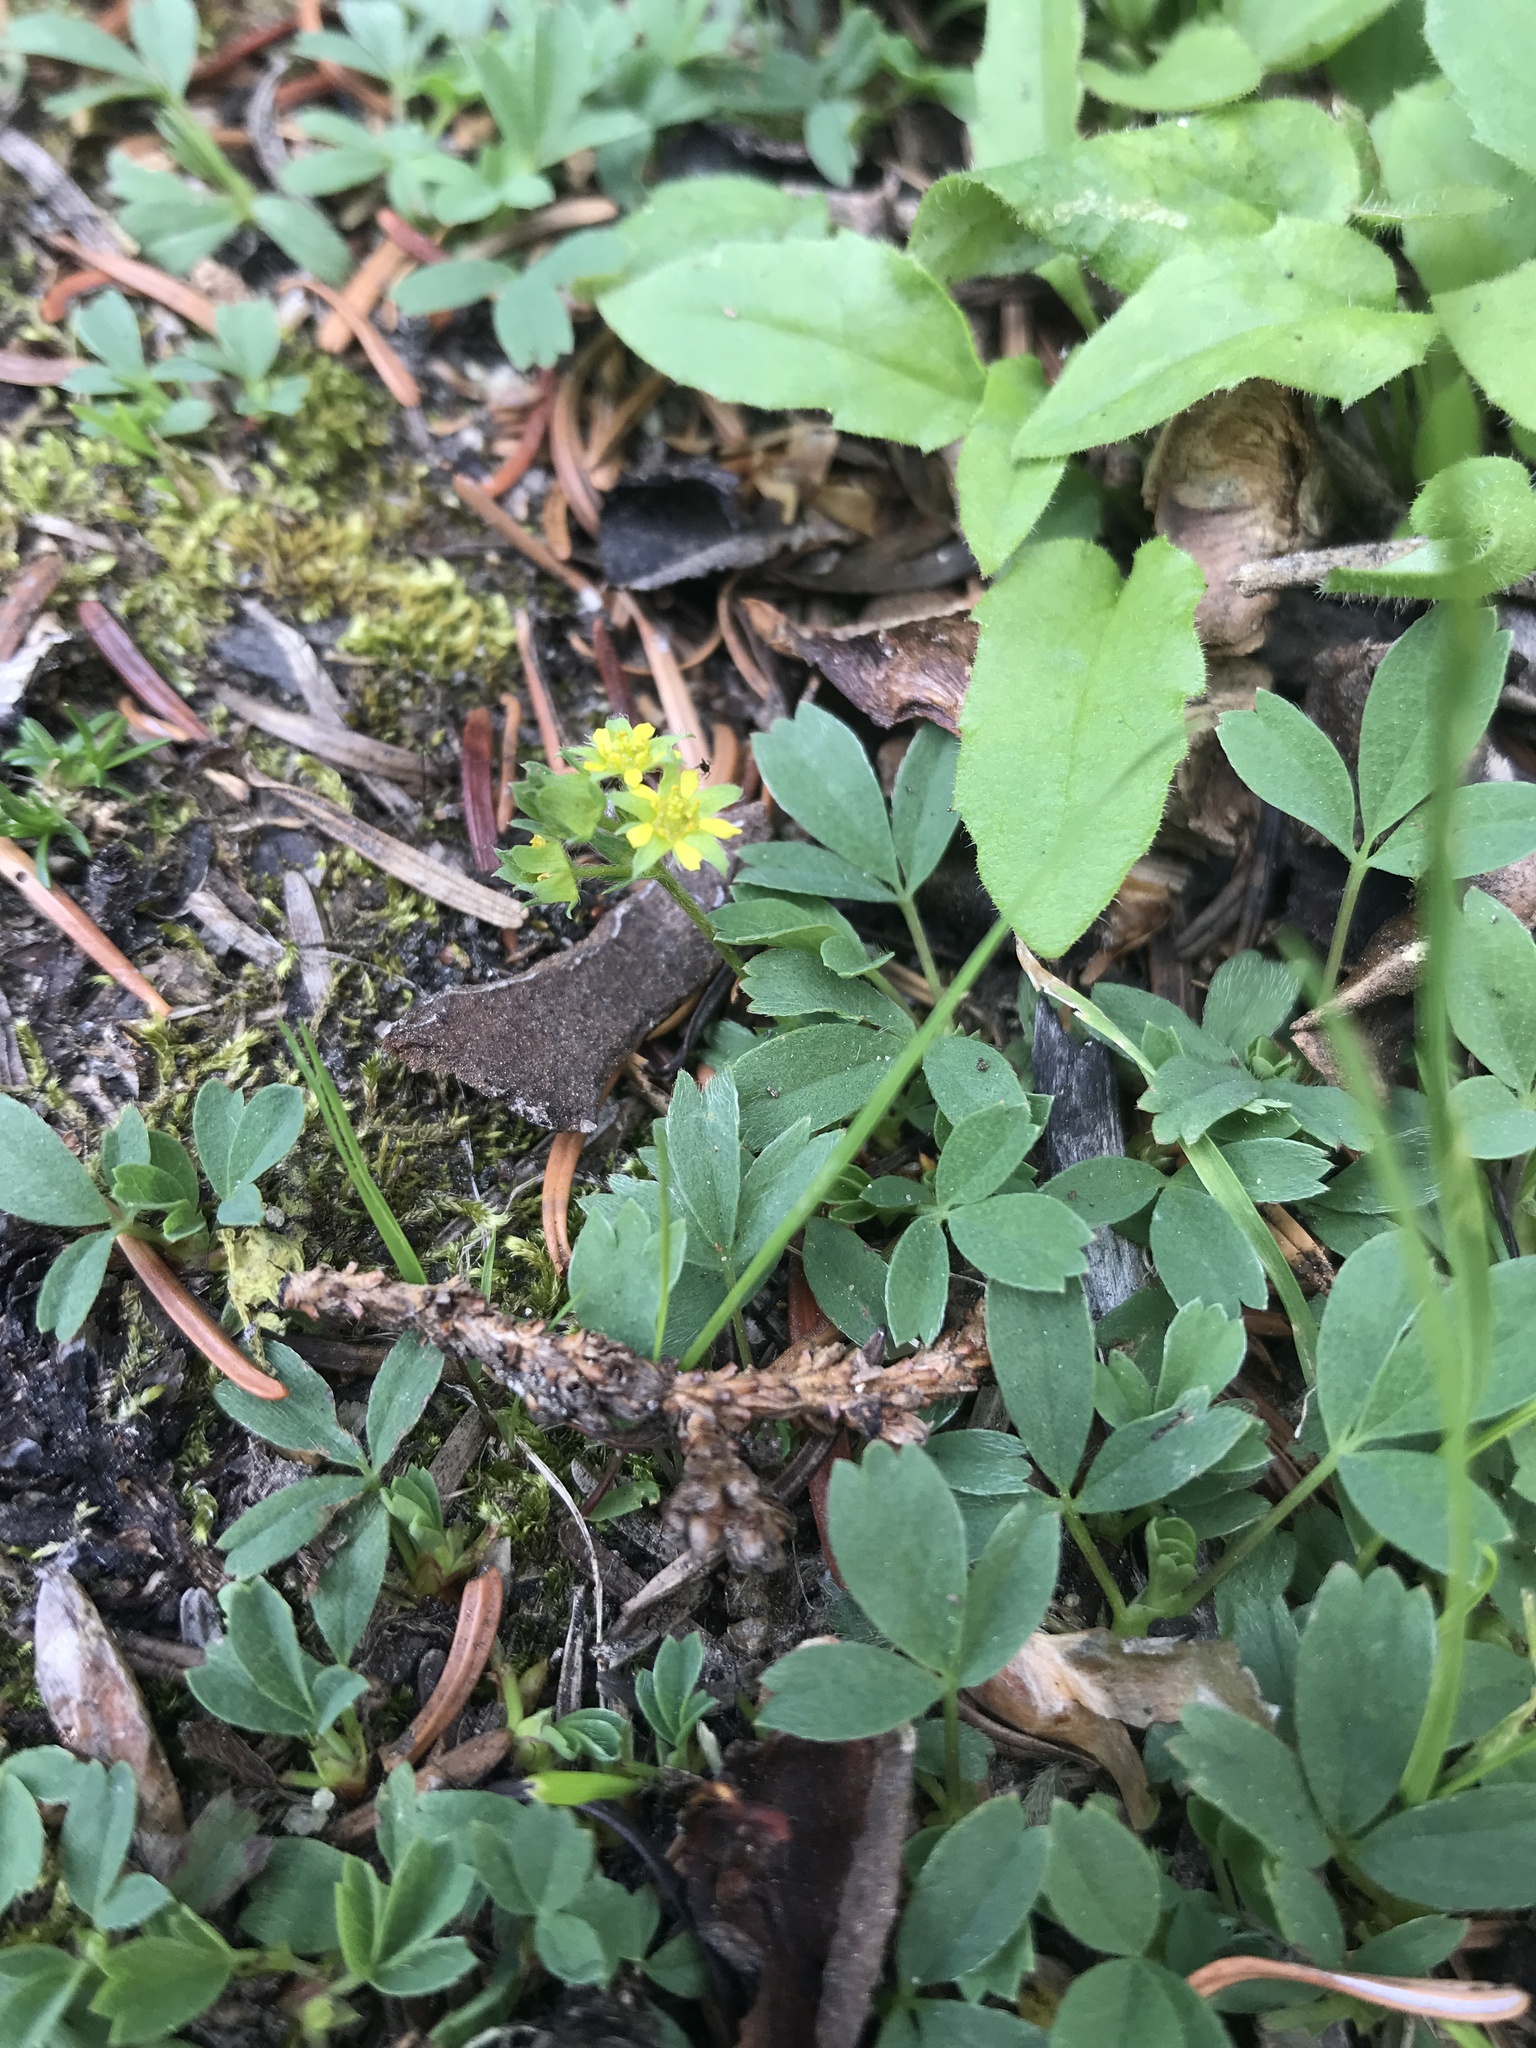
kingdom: Plantae
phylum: Tracheophyta
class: Magnoliopsida
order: Rosales
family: Rosaceae
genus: Sibbaldia
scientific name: Sibbaldia procumbens
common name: Creeping sibbaldia
